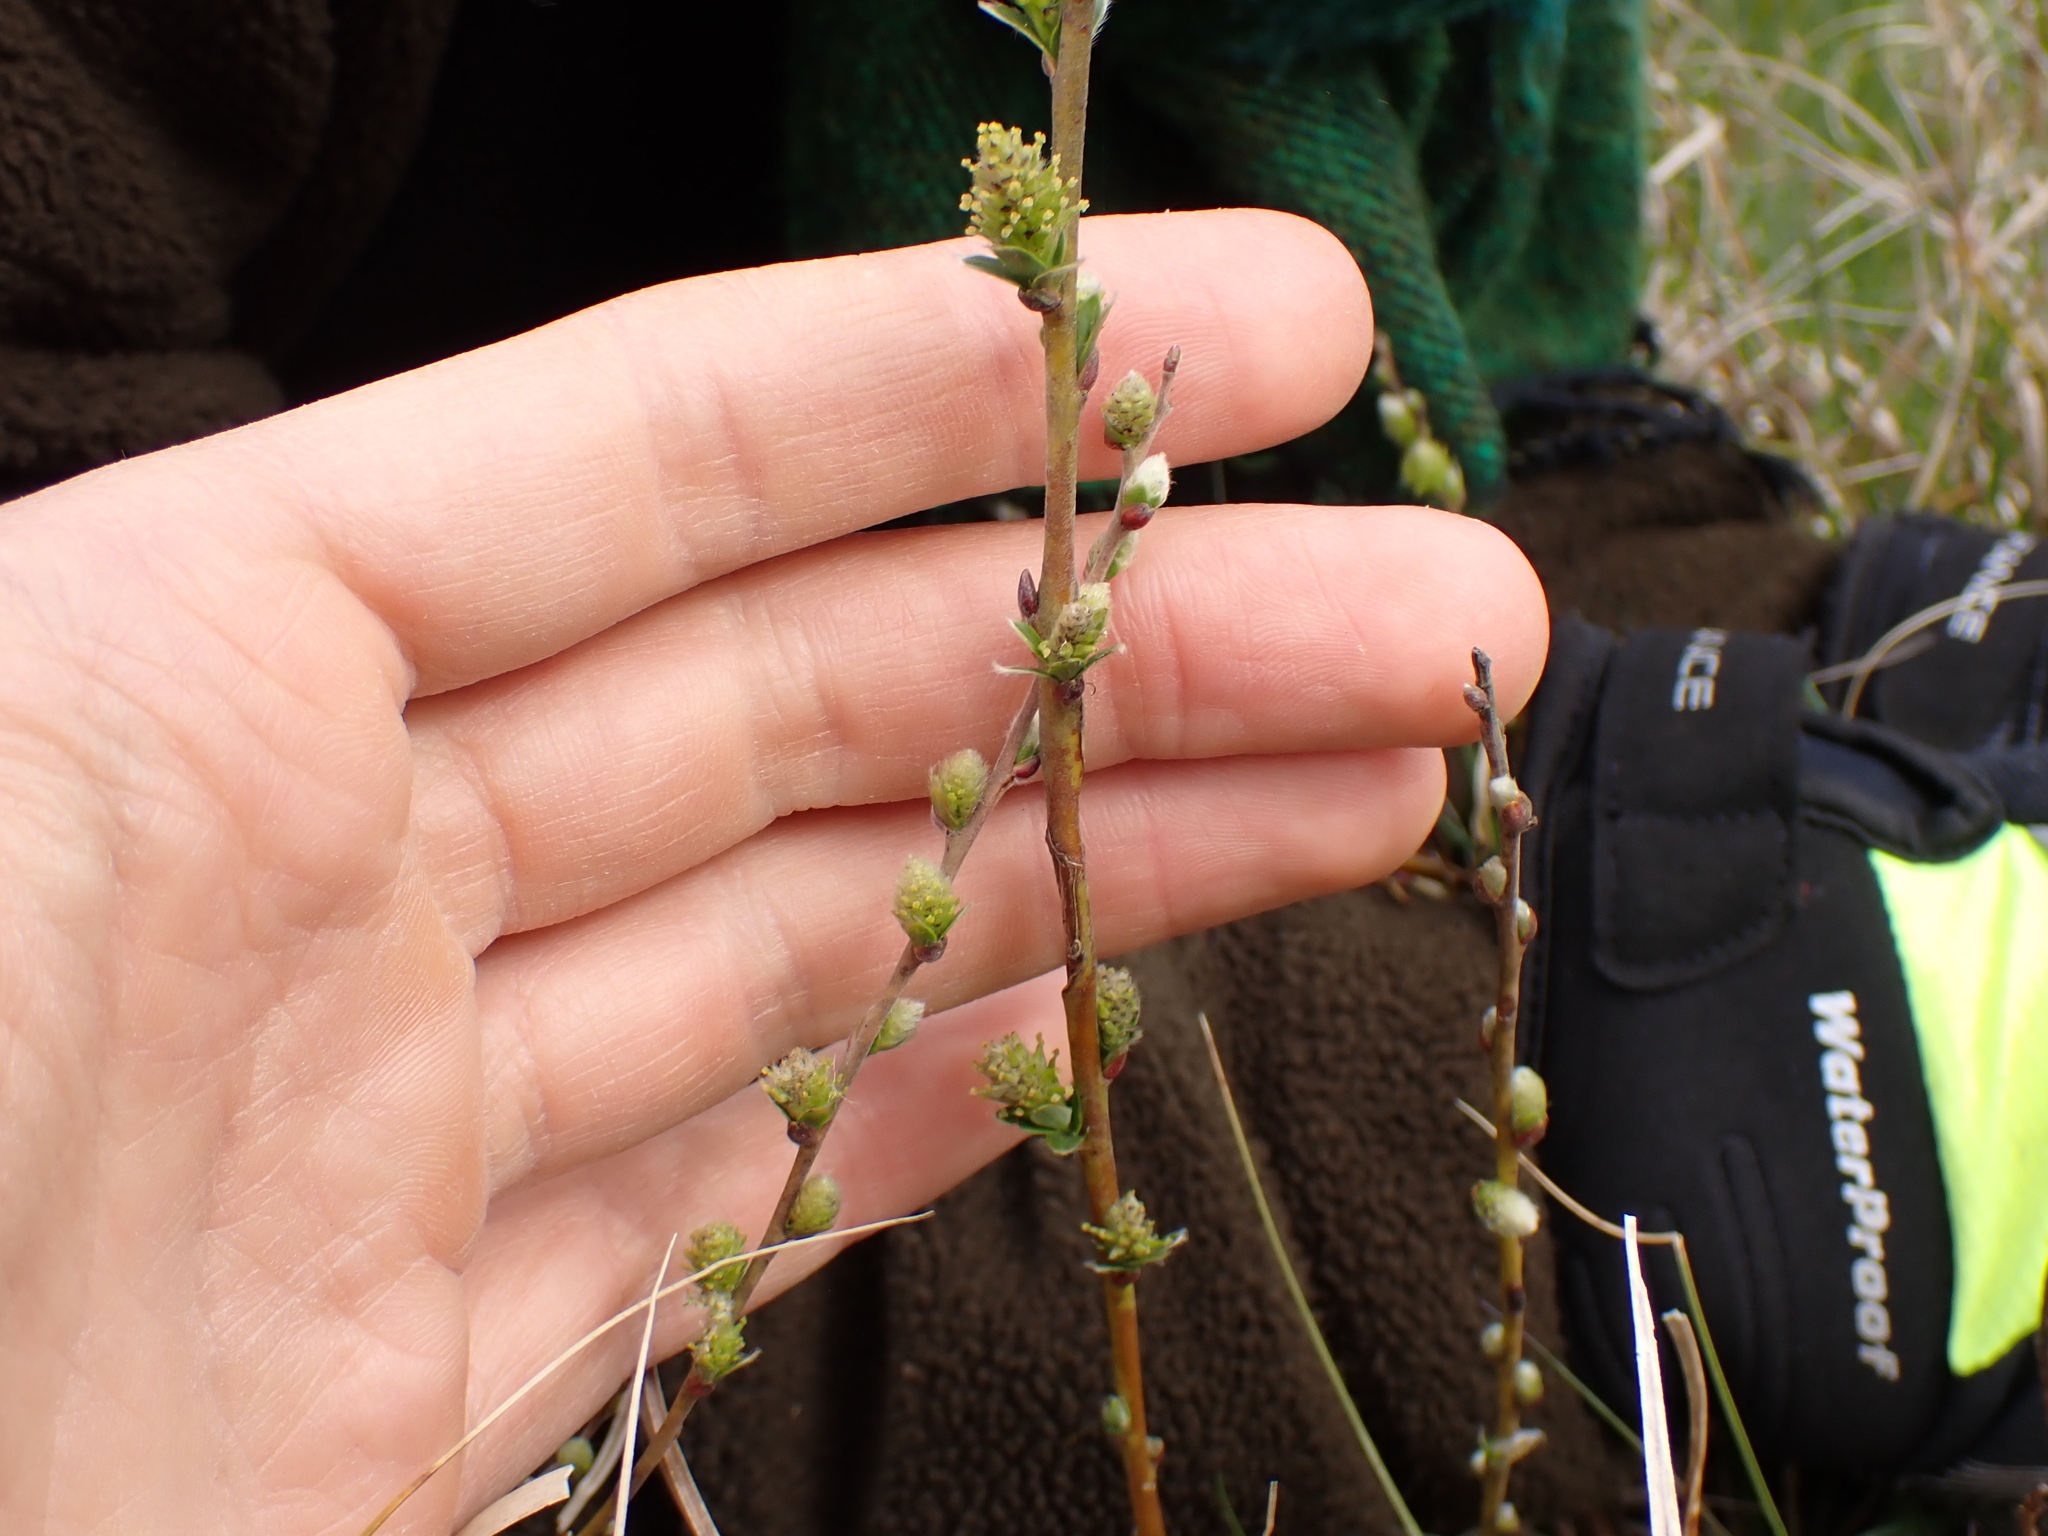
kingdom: Plantae
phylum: Tracheophyta
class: Magnoliopsida
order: Malpighiales
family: Salicaceae
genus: Salix
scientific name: Salix repens
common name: Creeping willow
